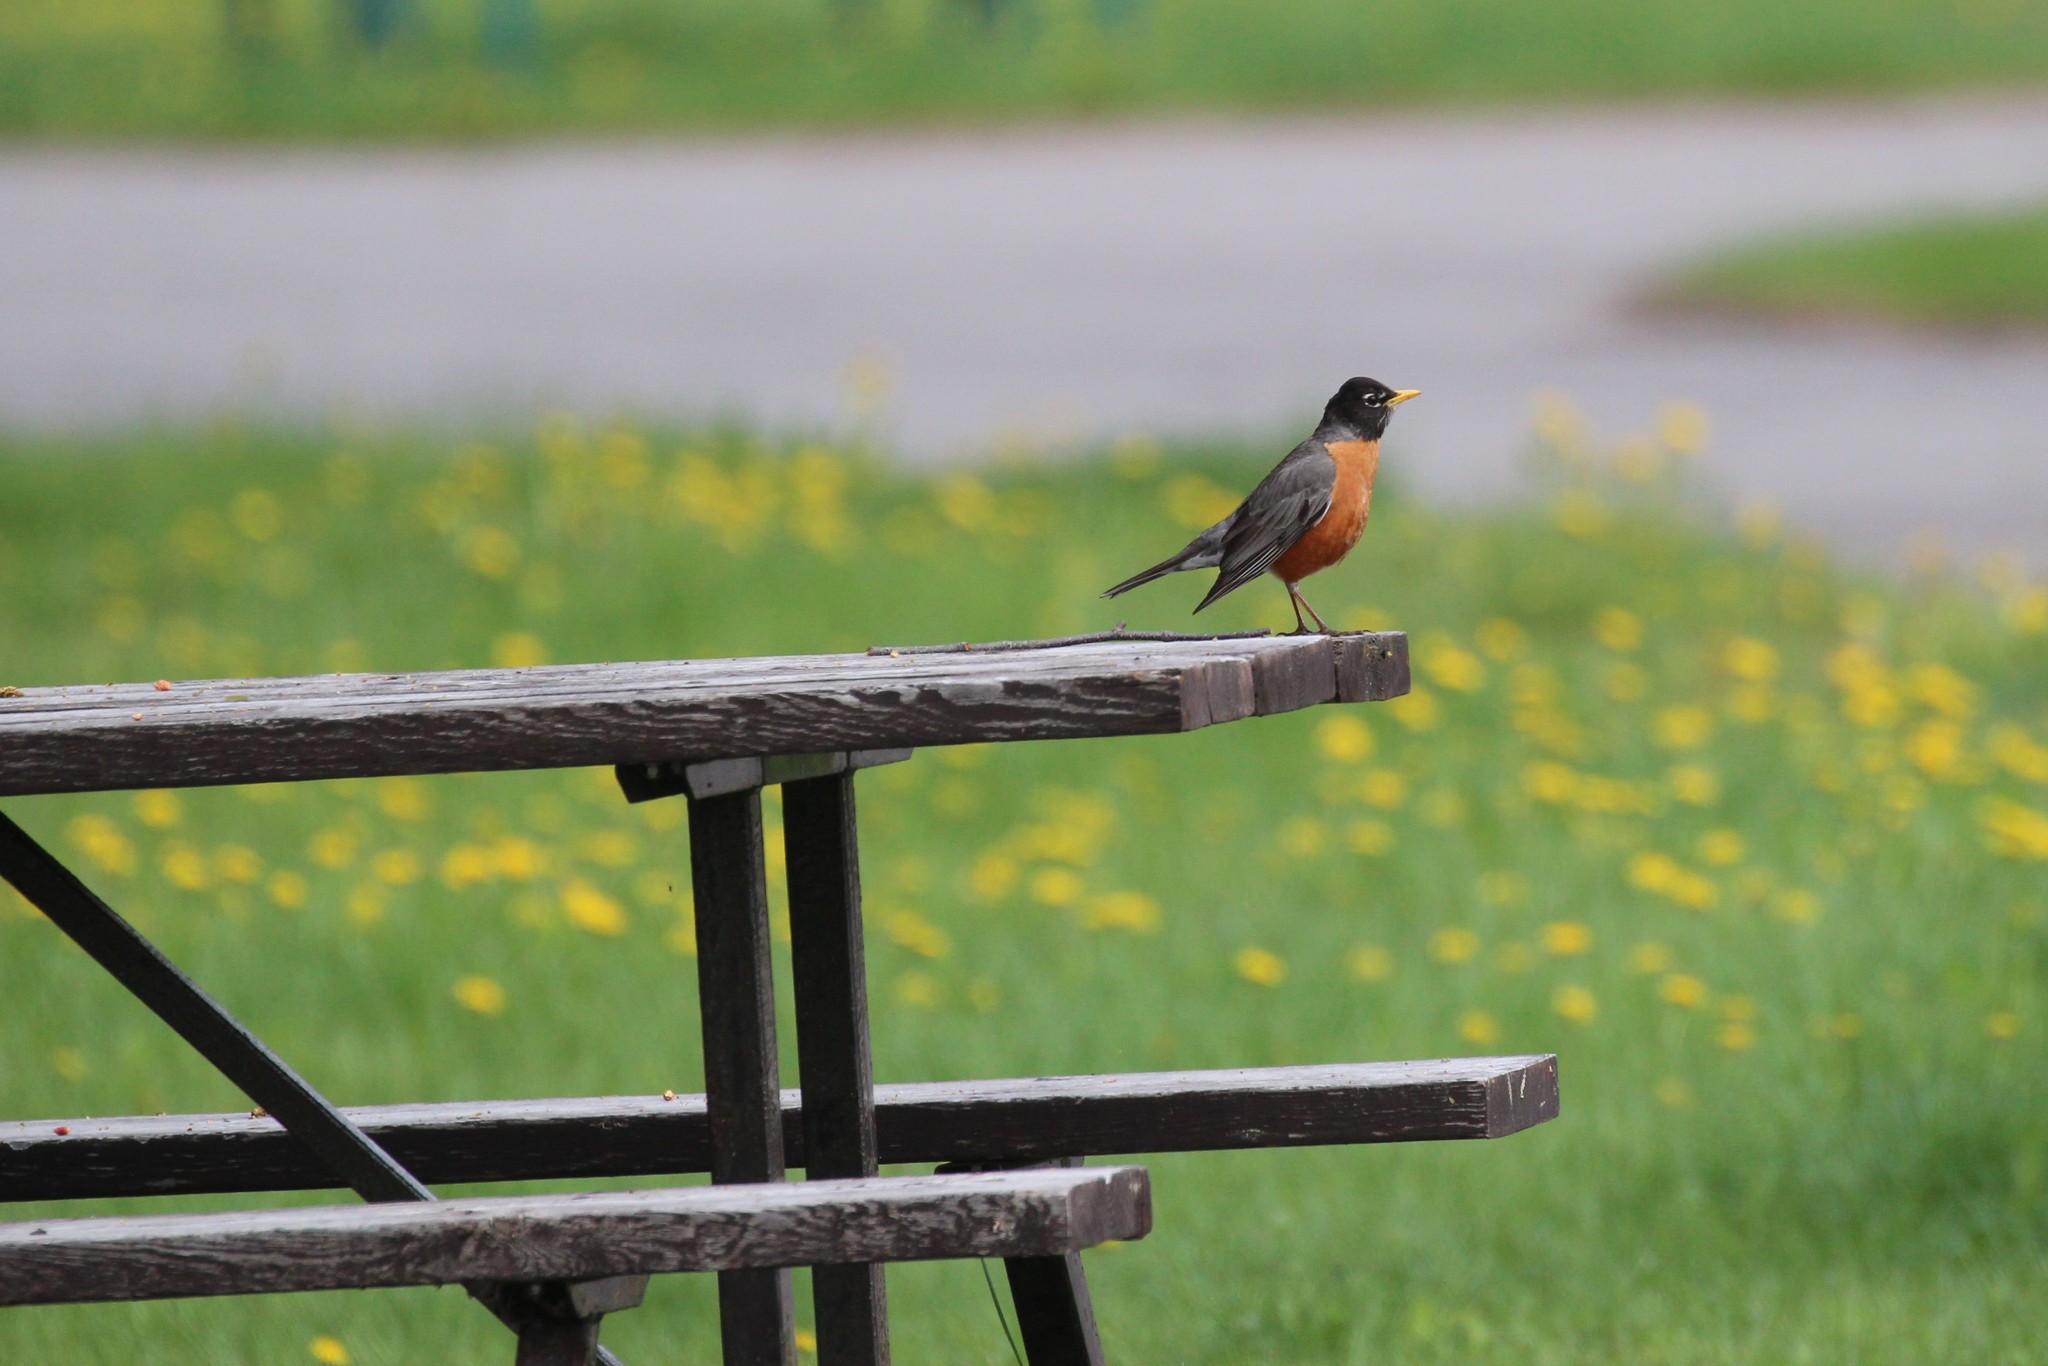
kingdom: Animalia
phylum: Chordata
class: Aves
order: Passeriformes
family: Turdidae
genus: Turdus
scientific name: Turdus migratorius
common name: American robin
